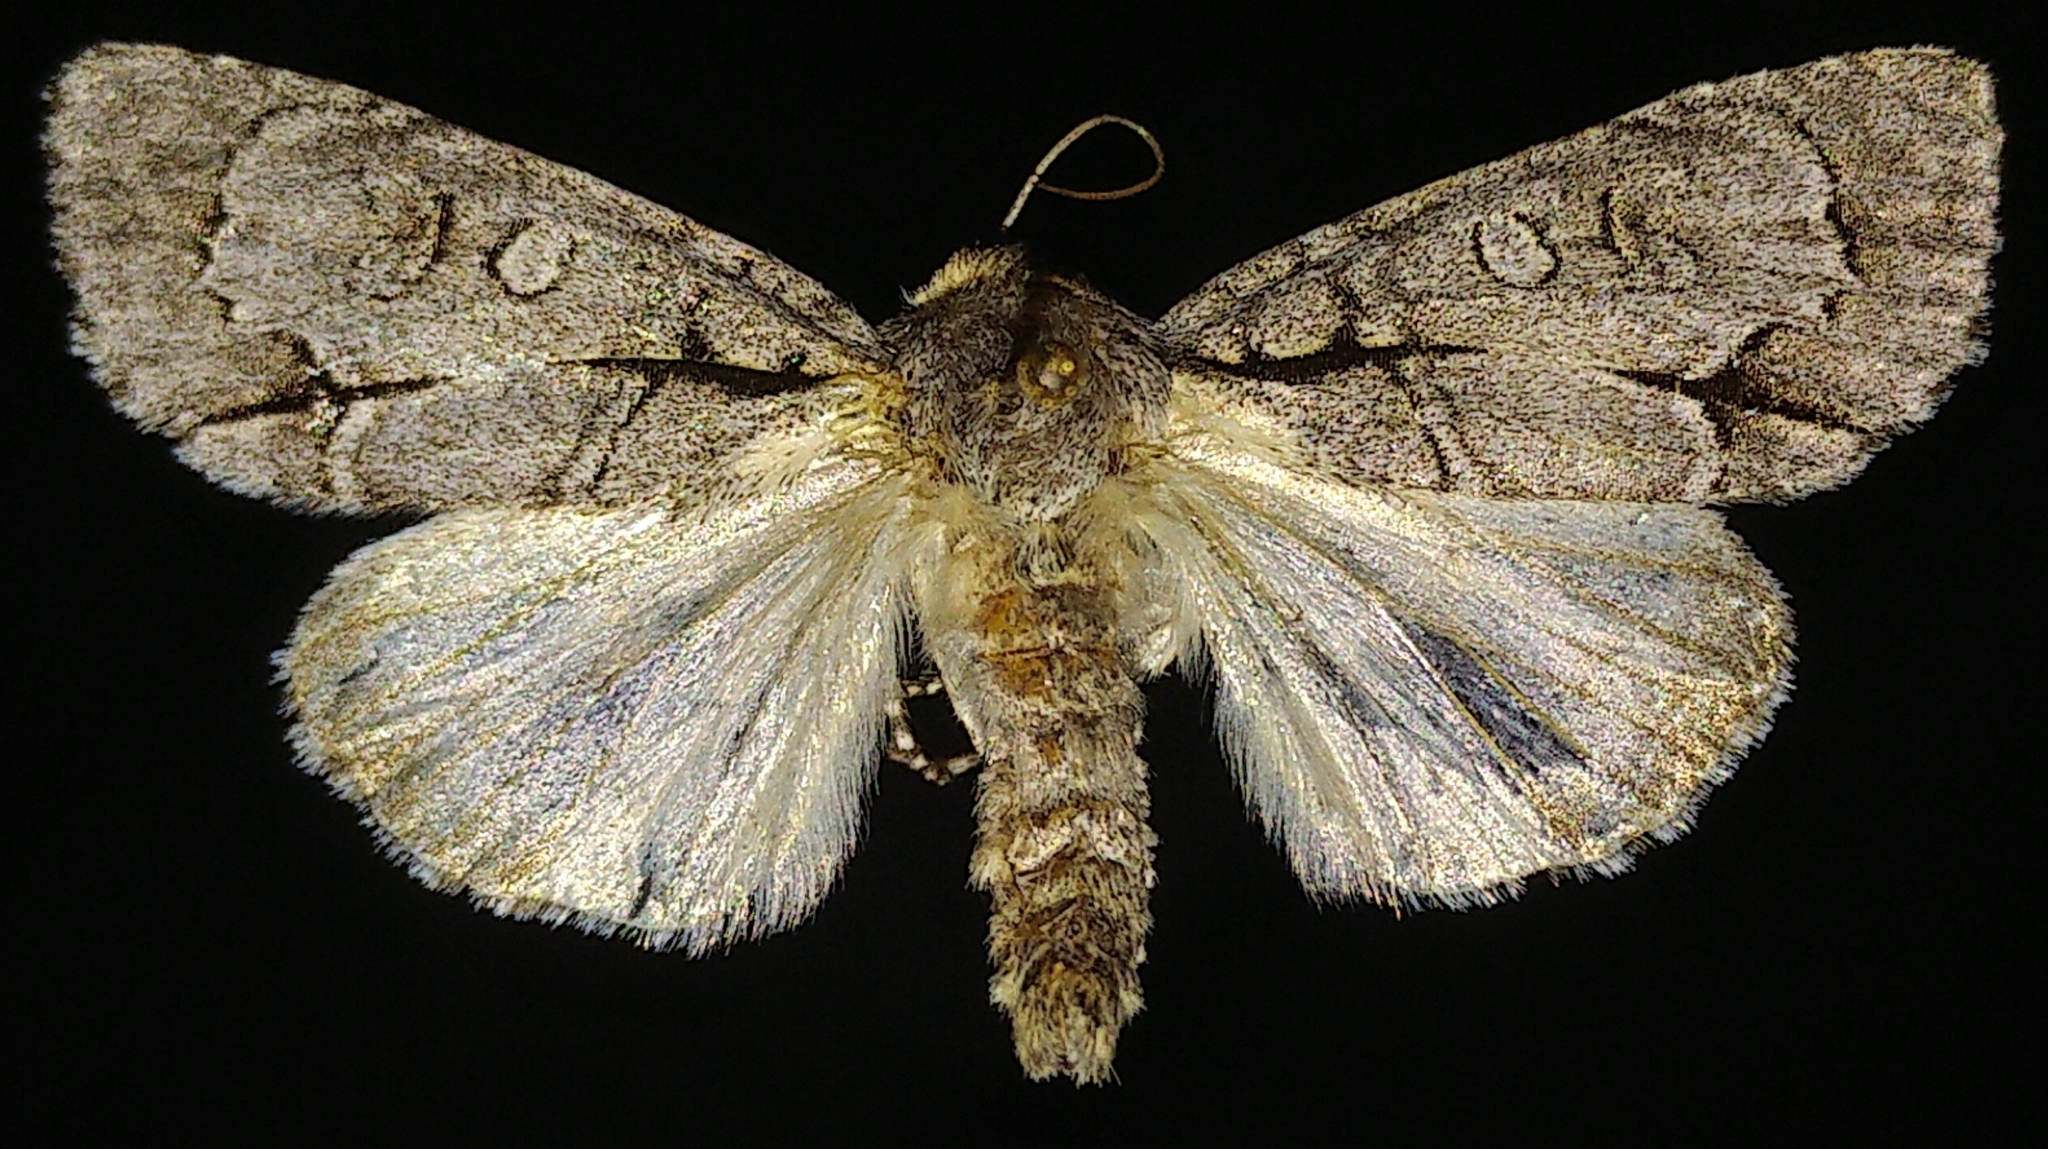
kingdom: Animalia
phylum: Arthropoda
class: Insecta
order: Lepidoptera
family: Noctuidae
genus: Acronicta
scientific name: Acronicta radcliffei
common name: Radcliffe's dagger
